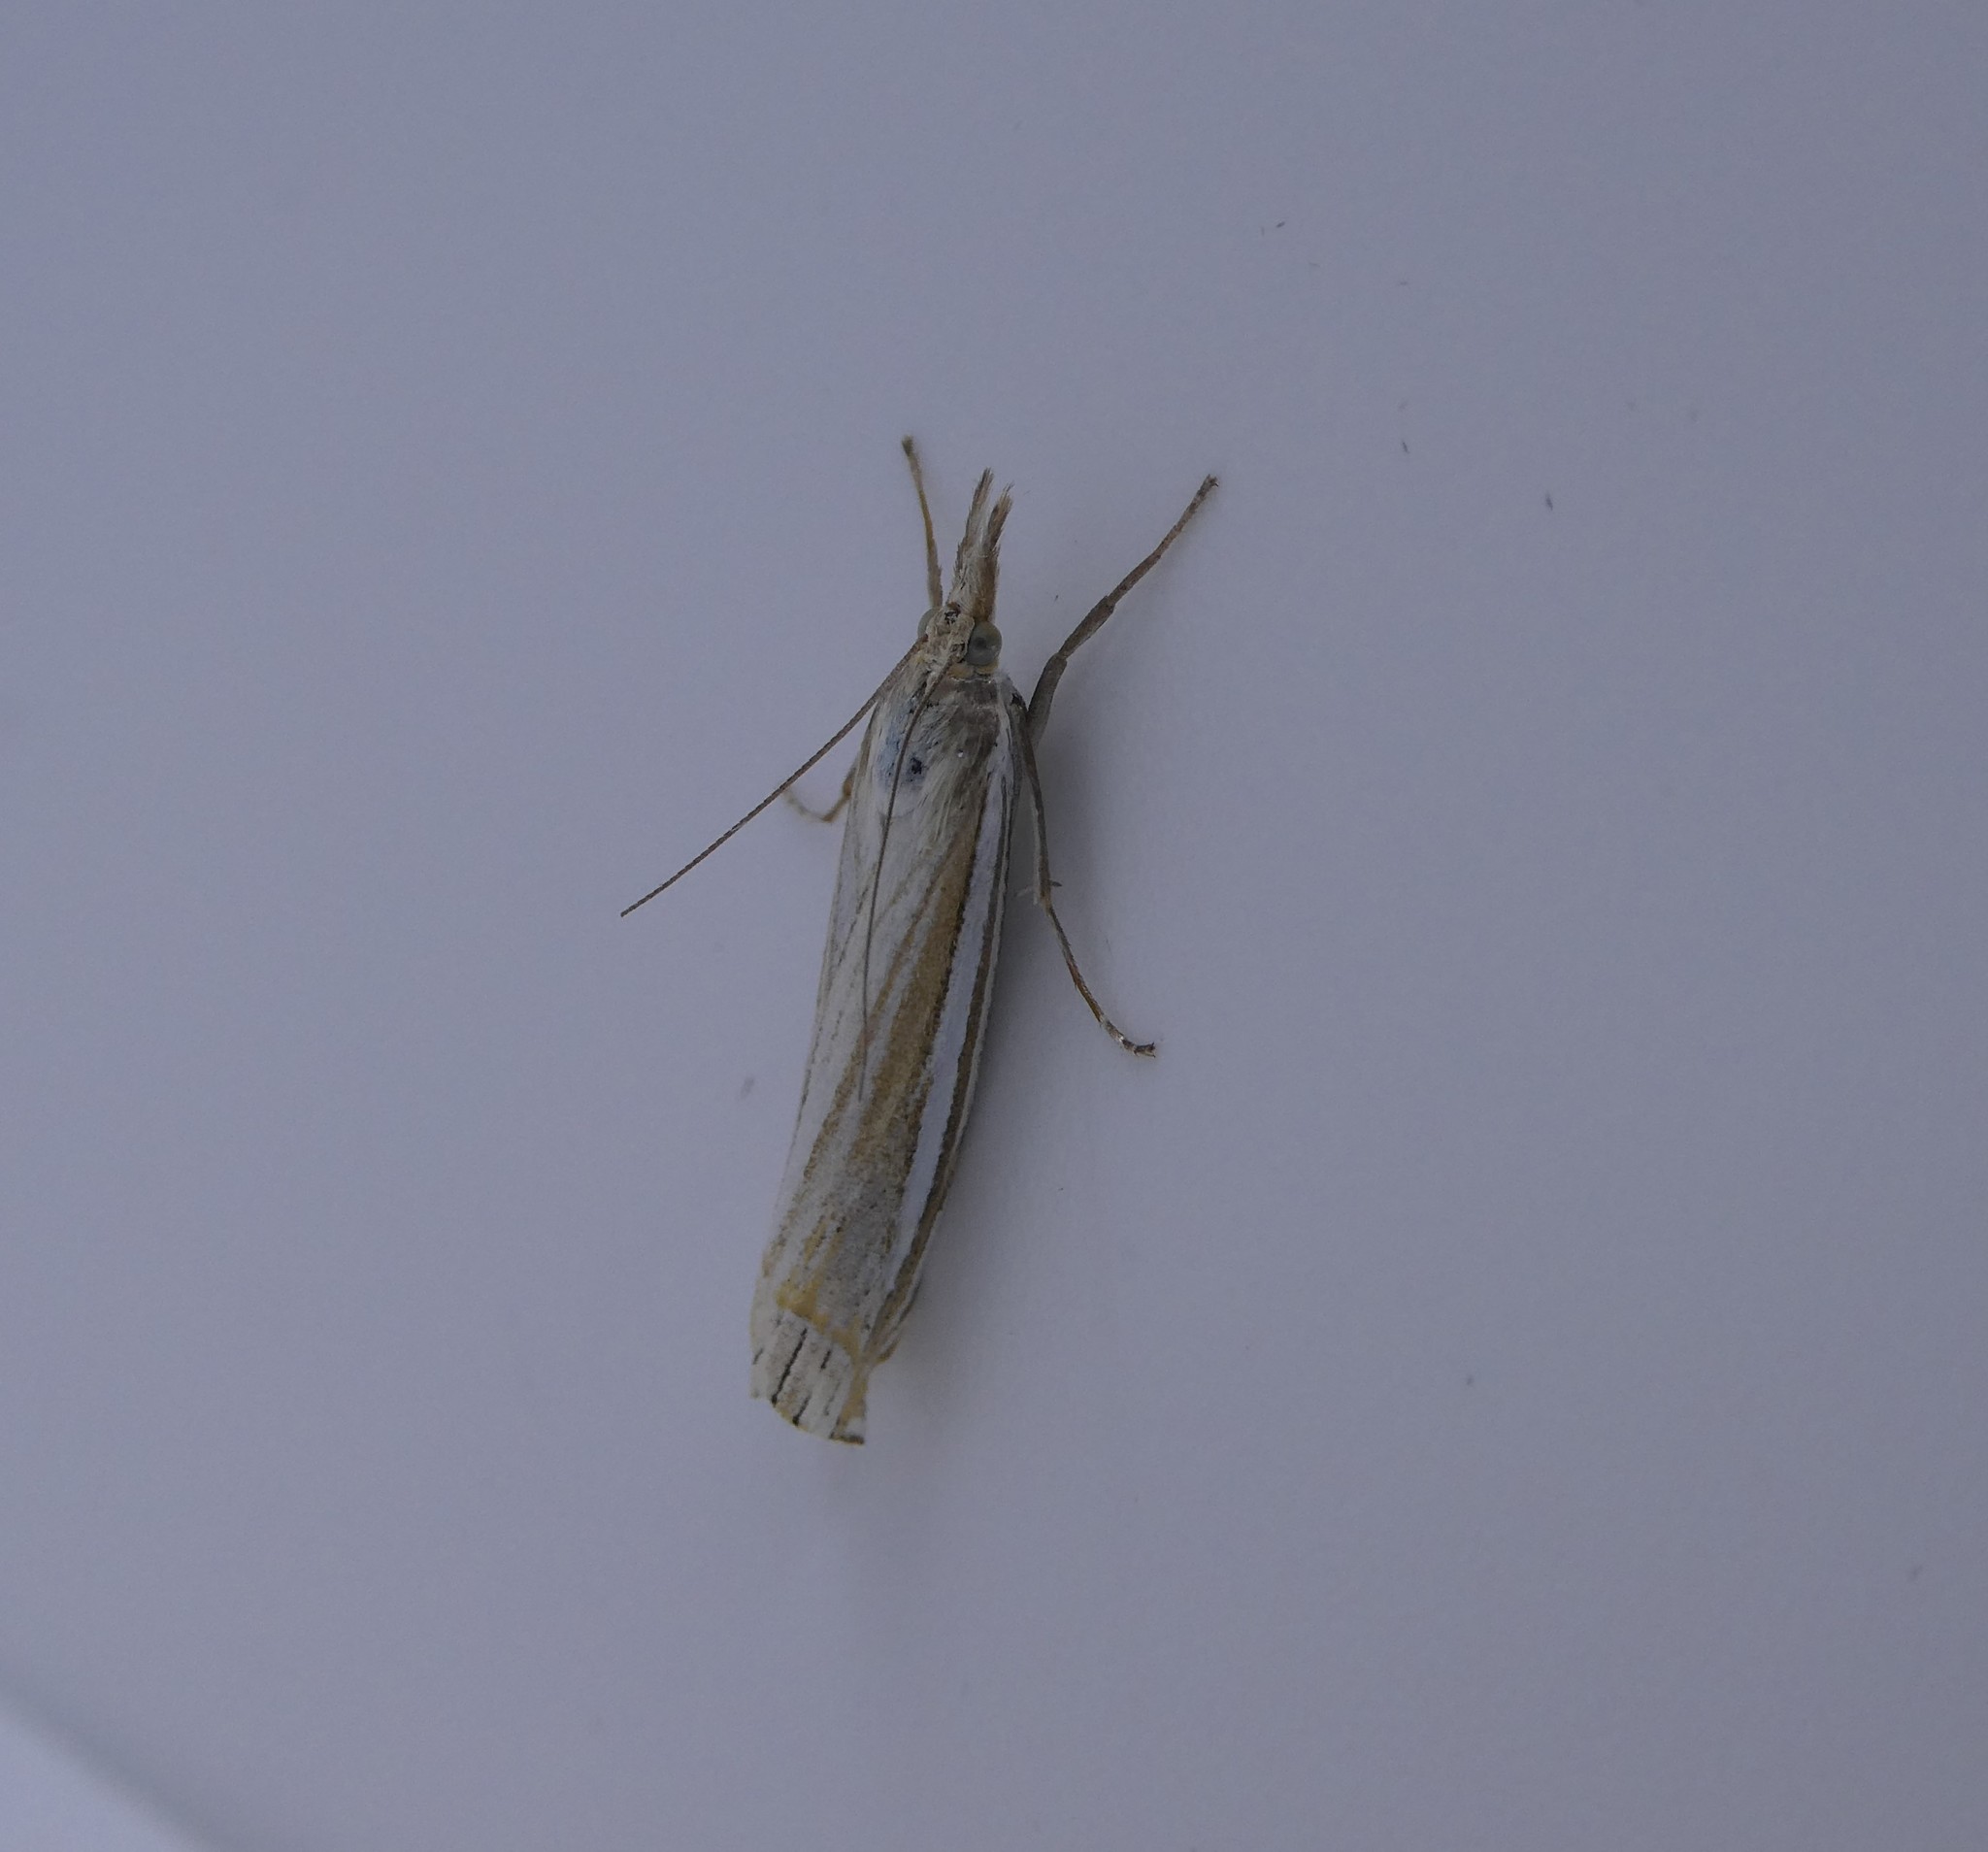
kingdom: Animalia
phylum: Arthropoda
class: Insecta
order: Lepidoptera
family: Crambidae
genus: Crambus
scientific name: Crambus laqueatellus
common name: Eastern grass-veneer
